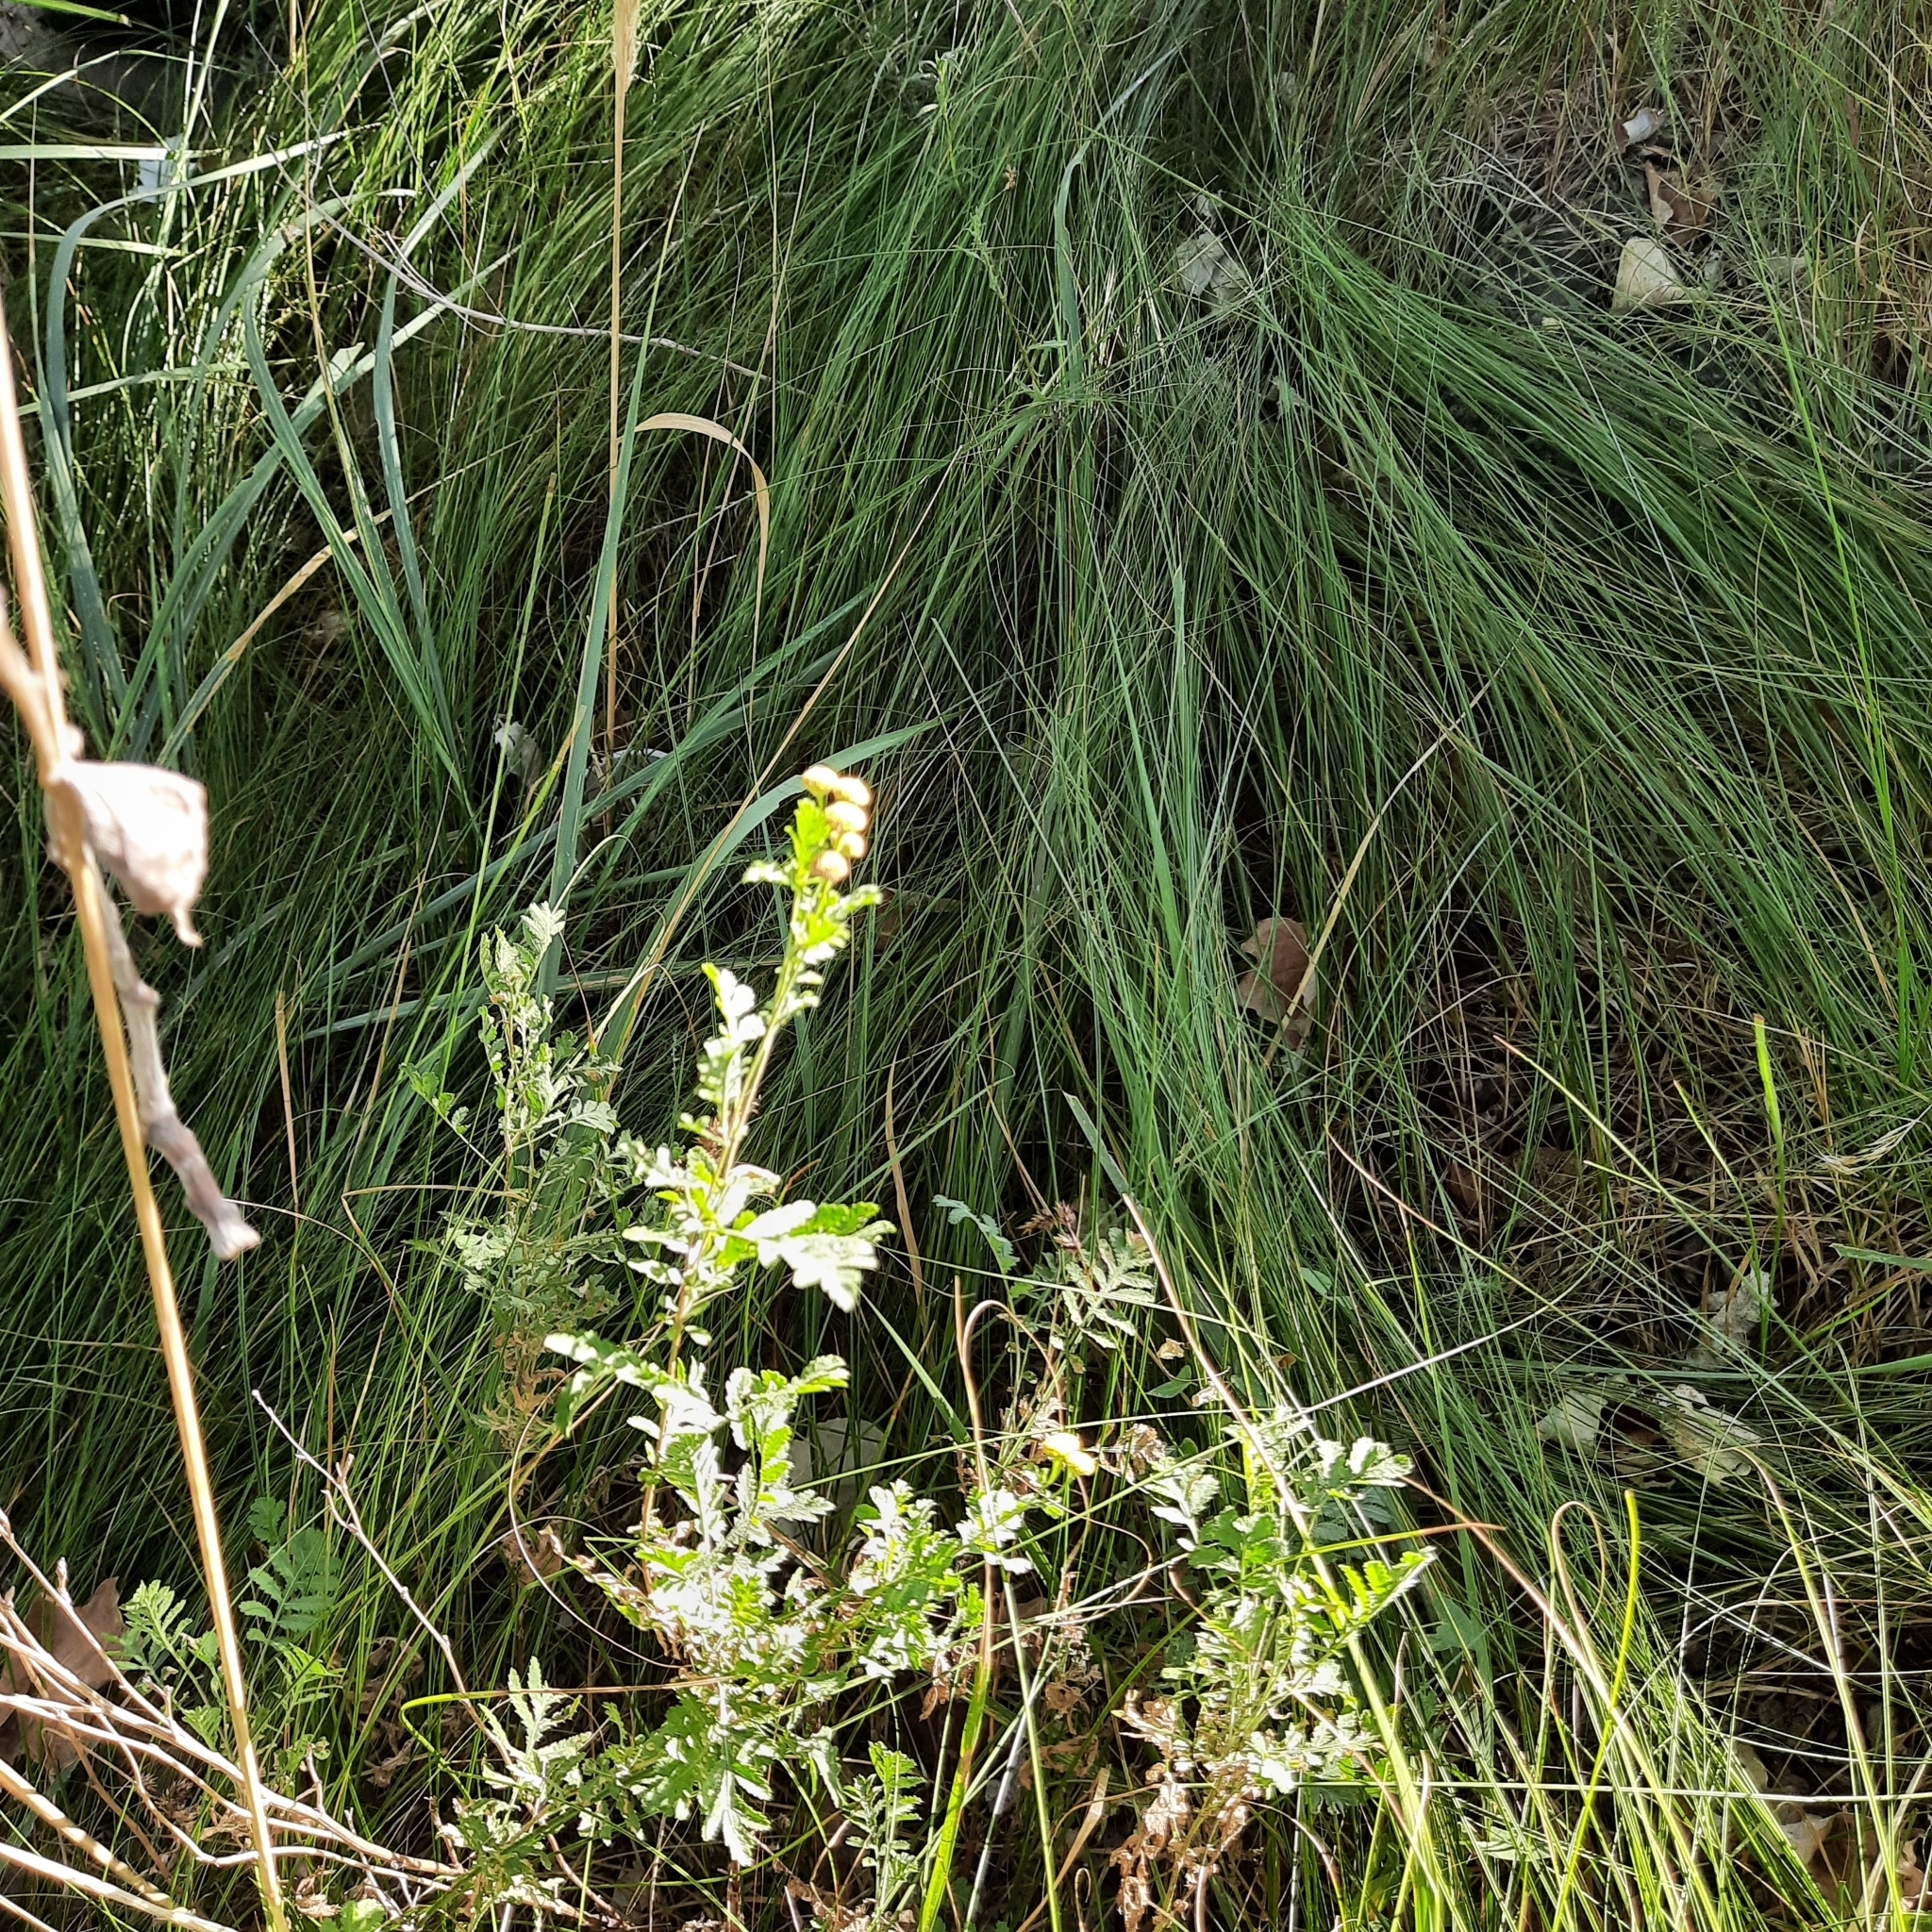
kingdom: Plantae
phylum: Tracheophyta
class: Magnoliopsida
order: Asterales
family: Asteraceae
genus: Tanacetum
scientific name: Tanacetum vulgare
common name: Common tansy
